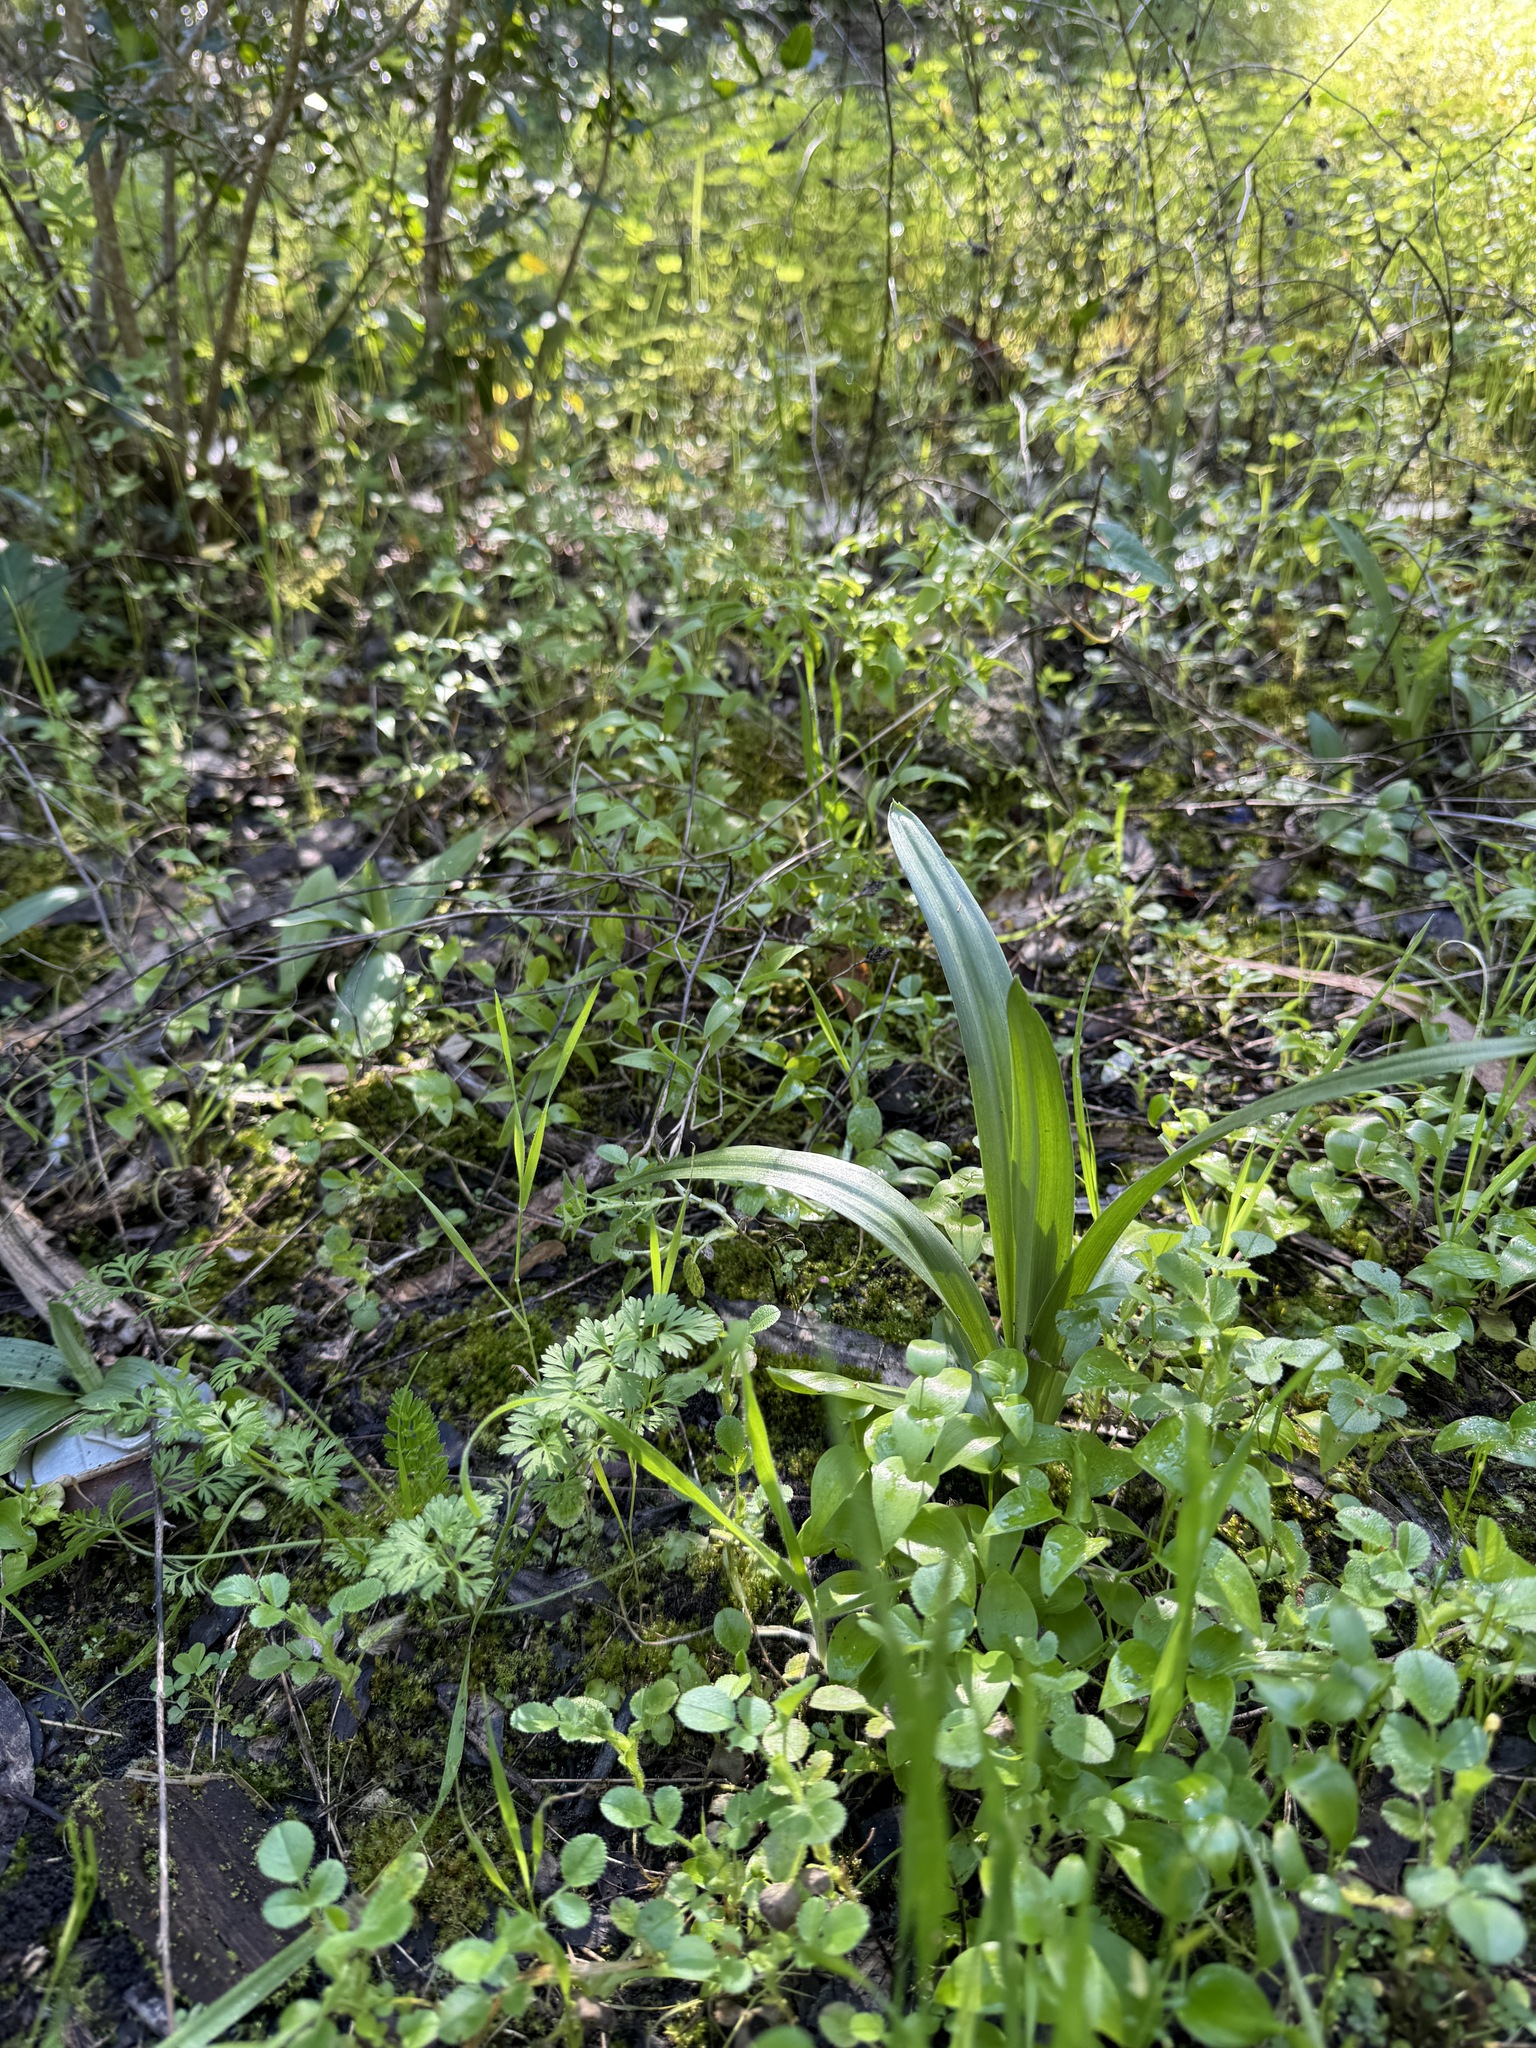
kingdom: Plantae
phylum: Tracheophyta
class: Liliopsida
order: Asparagales
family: Orchidaceae
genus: Anacamptis
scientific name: Anacamptis pyramidalis
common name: Pyramidal orchid
